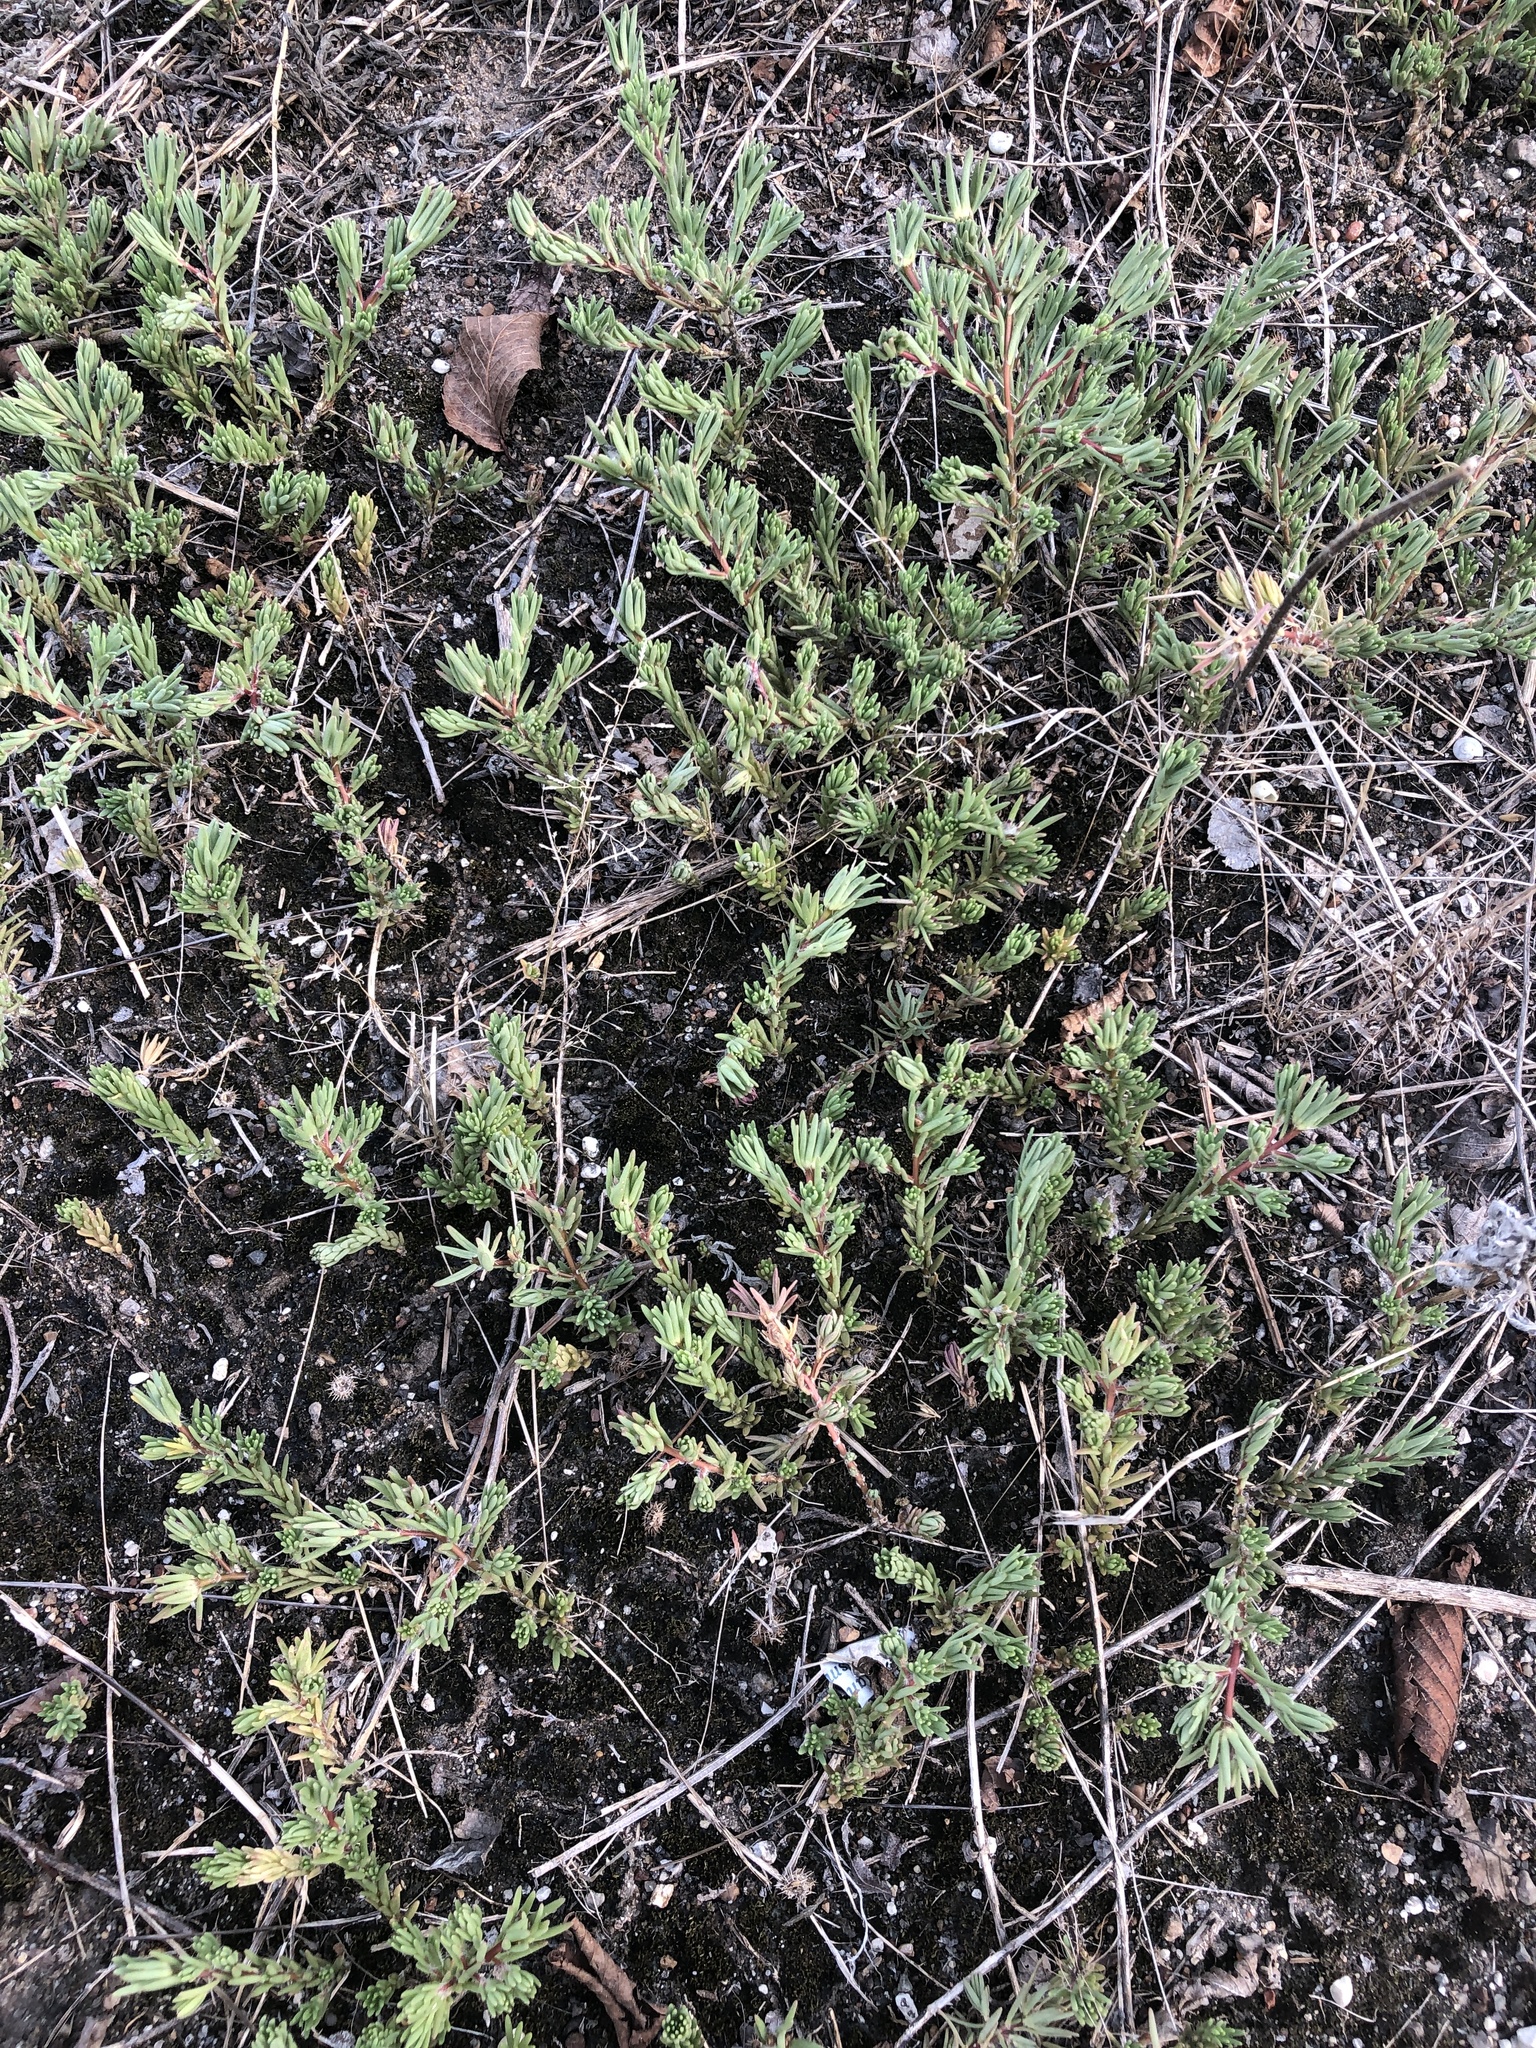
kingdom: Plantae
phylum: Tracheophyta
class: Magnoliopsida
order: Caryophyllales
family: Portulacaceae
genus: Portulaca
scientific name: Portulaca pilosa
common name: Kiss me quick
